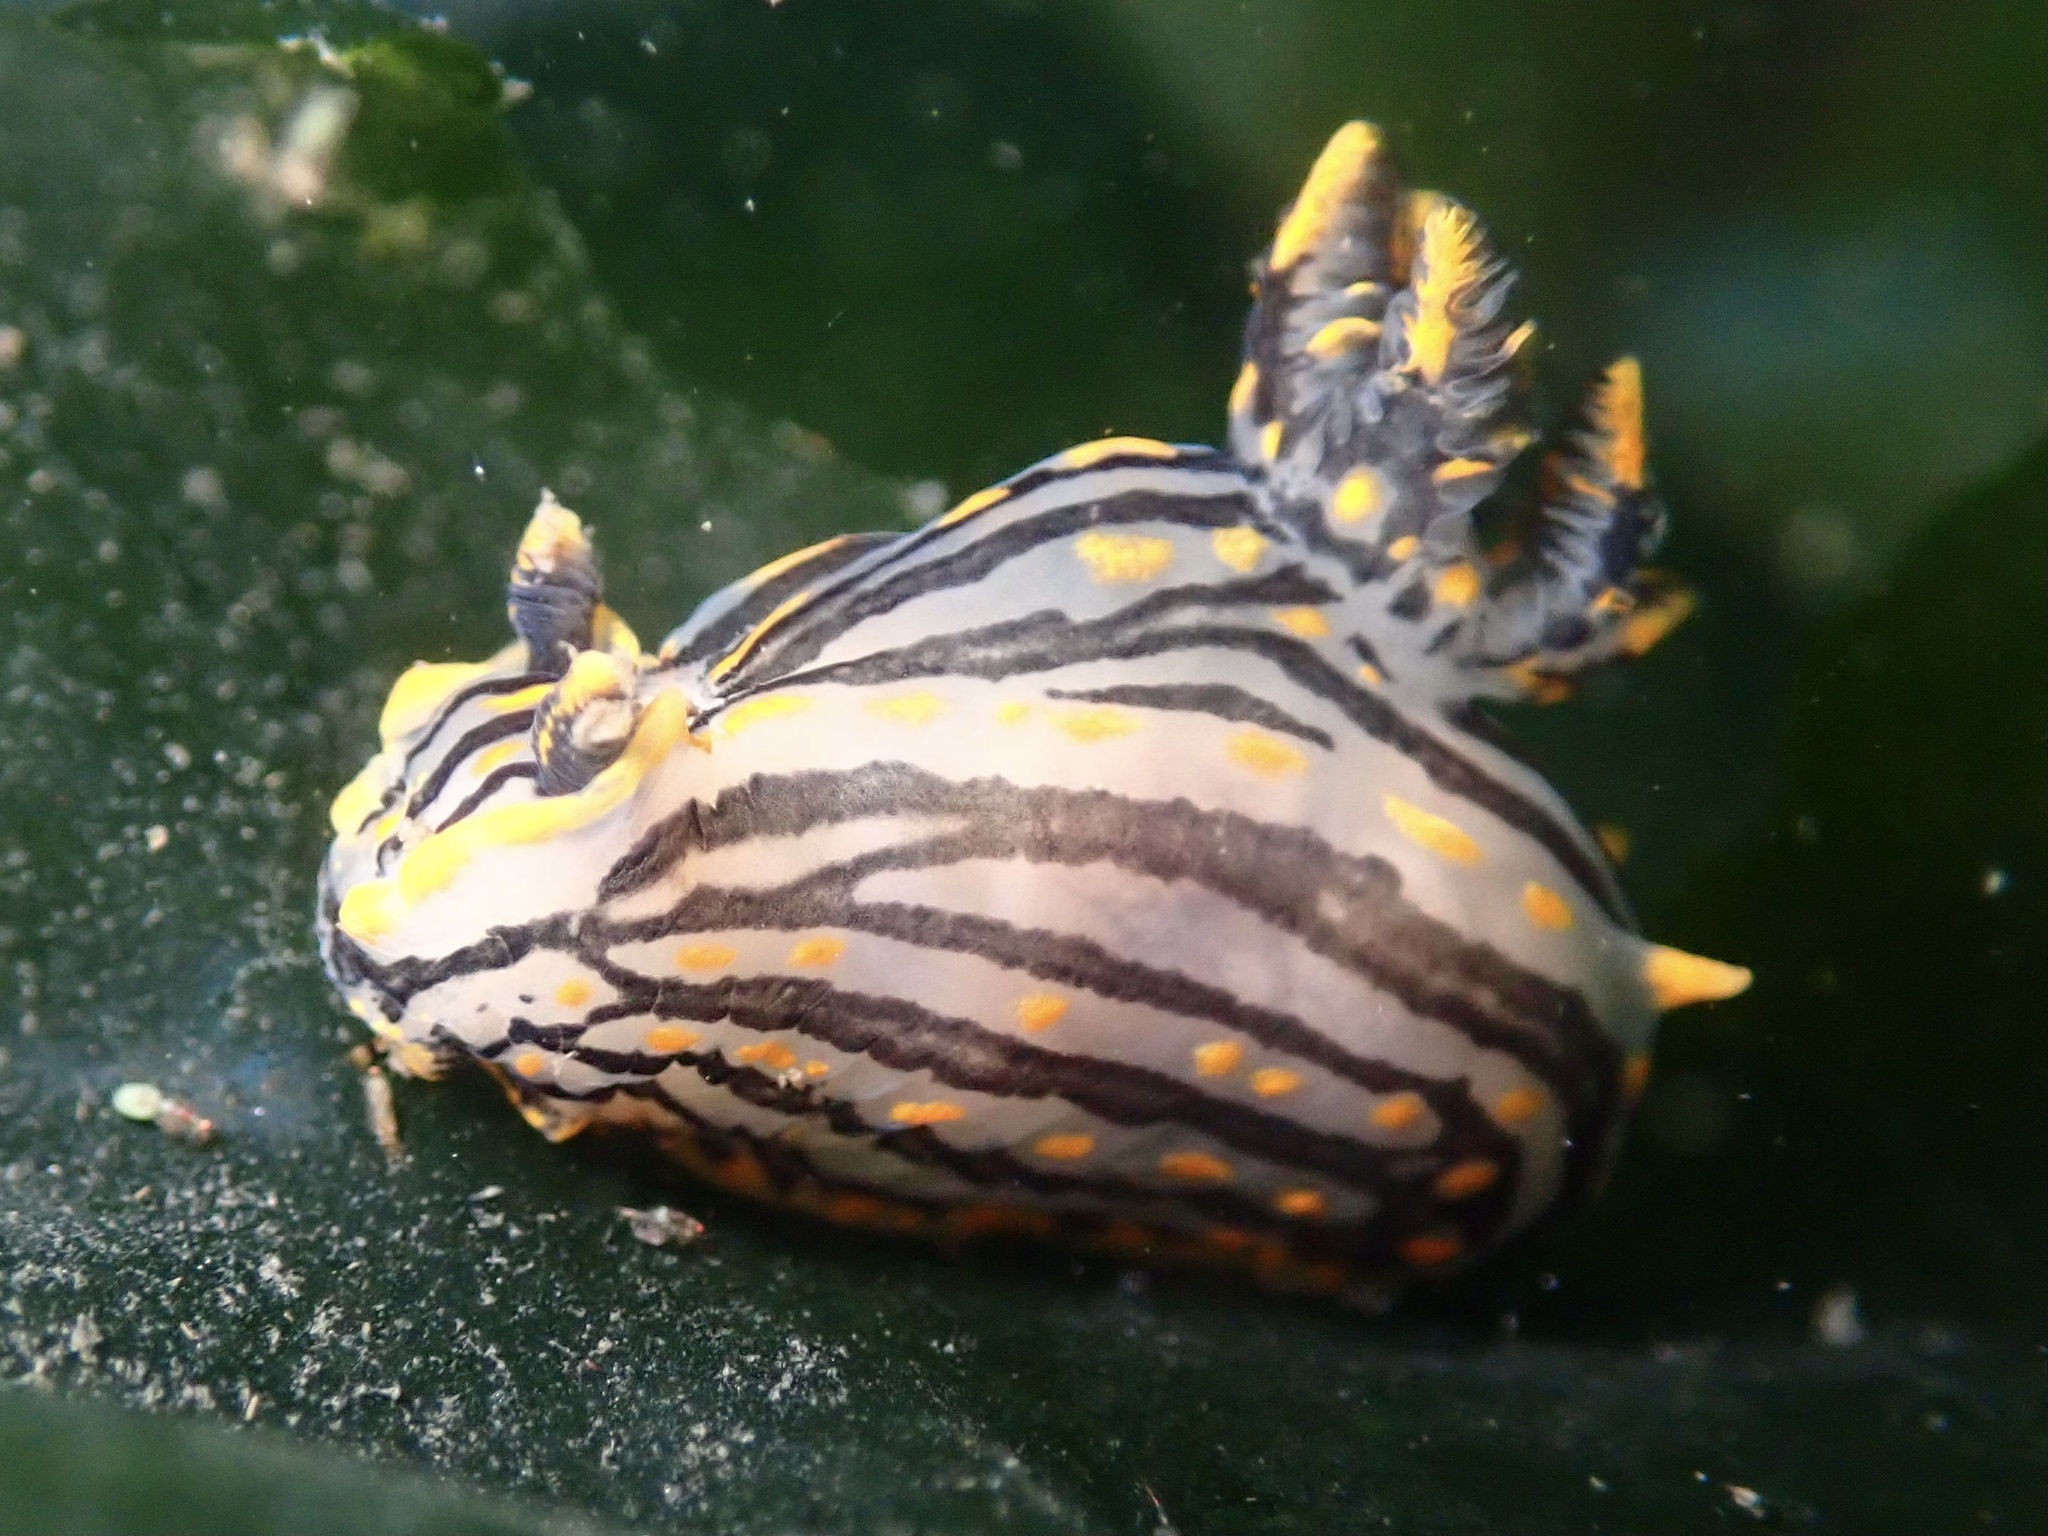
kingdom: Animalia
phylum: Mollusca
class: Gastropoda
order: Nudibranchia
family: Polyceridae
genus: Polycera
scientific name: Polycera atra
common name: Orange-spike polycera
